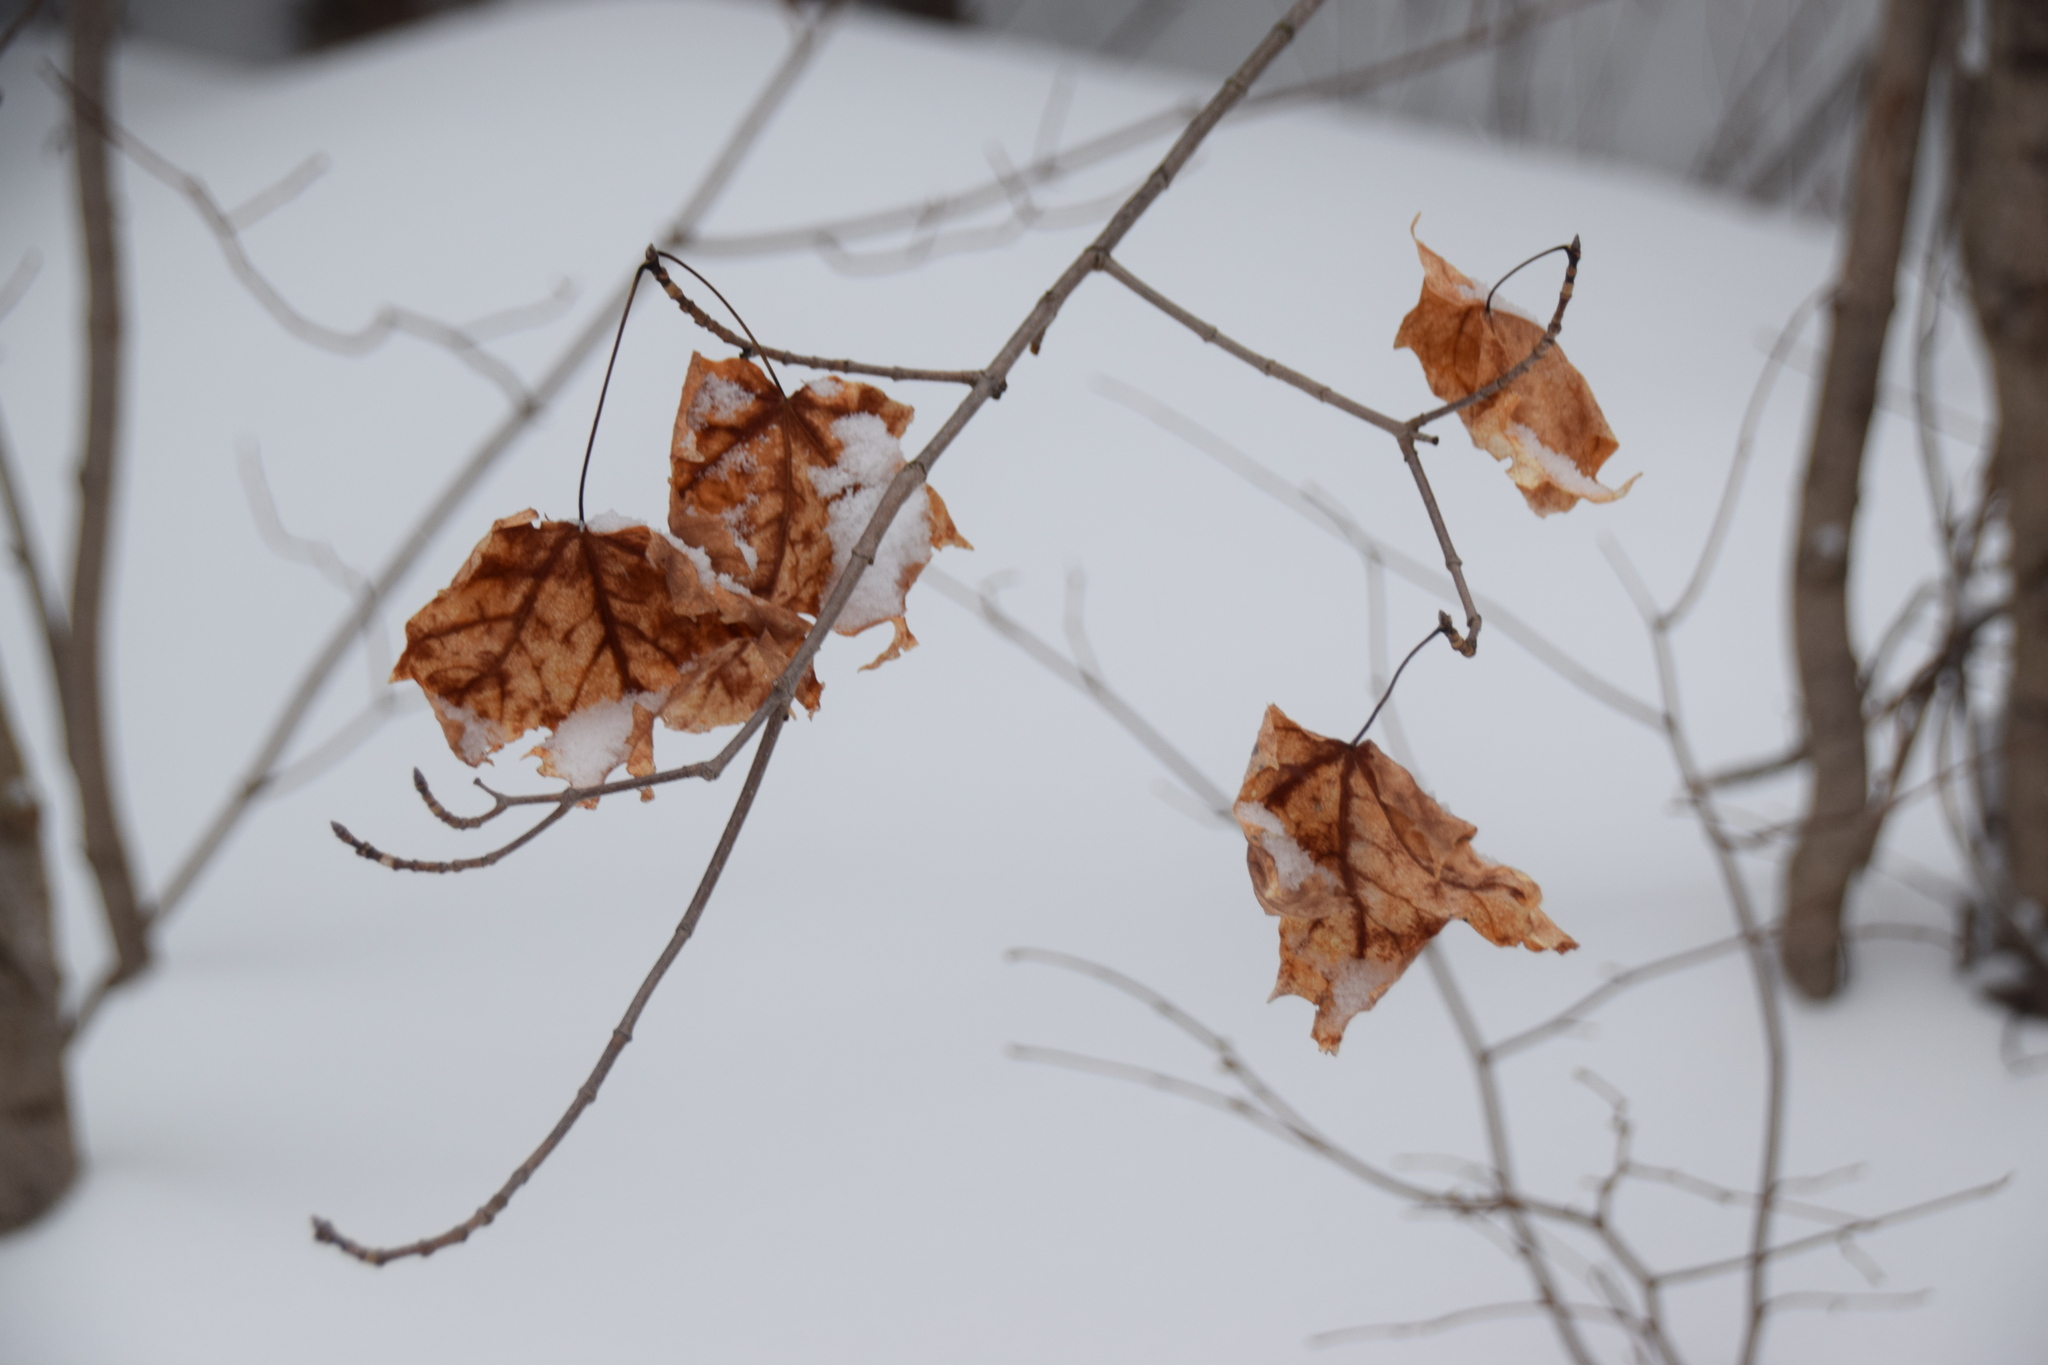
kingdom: Plantae
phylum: Tracheophyta
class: Magnoliopsida
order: Sapindales
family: Sapindaceae
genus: Acer
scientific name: Acer saccharum
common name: Sugar maple
